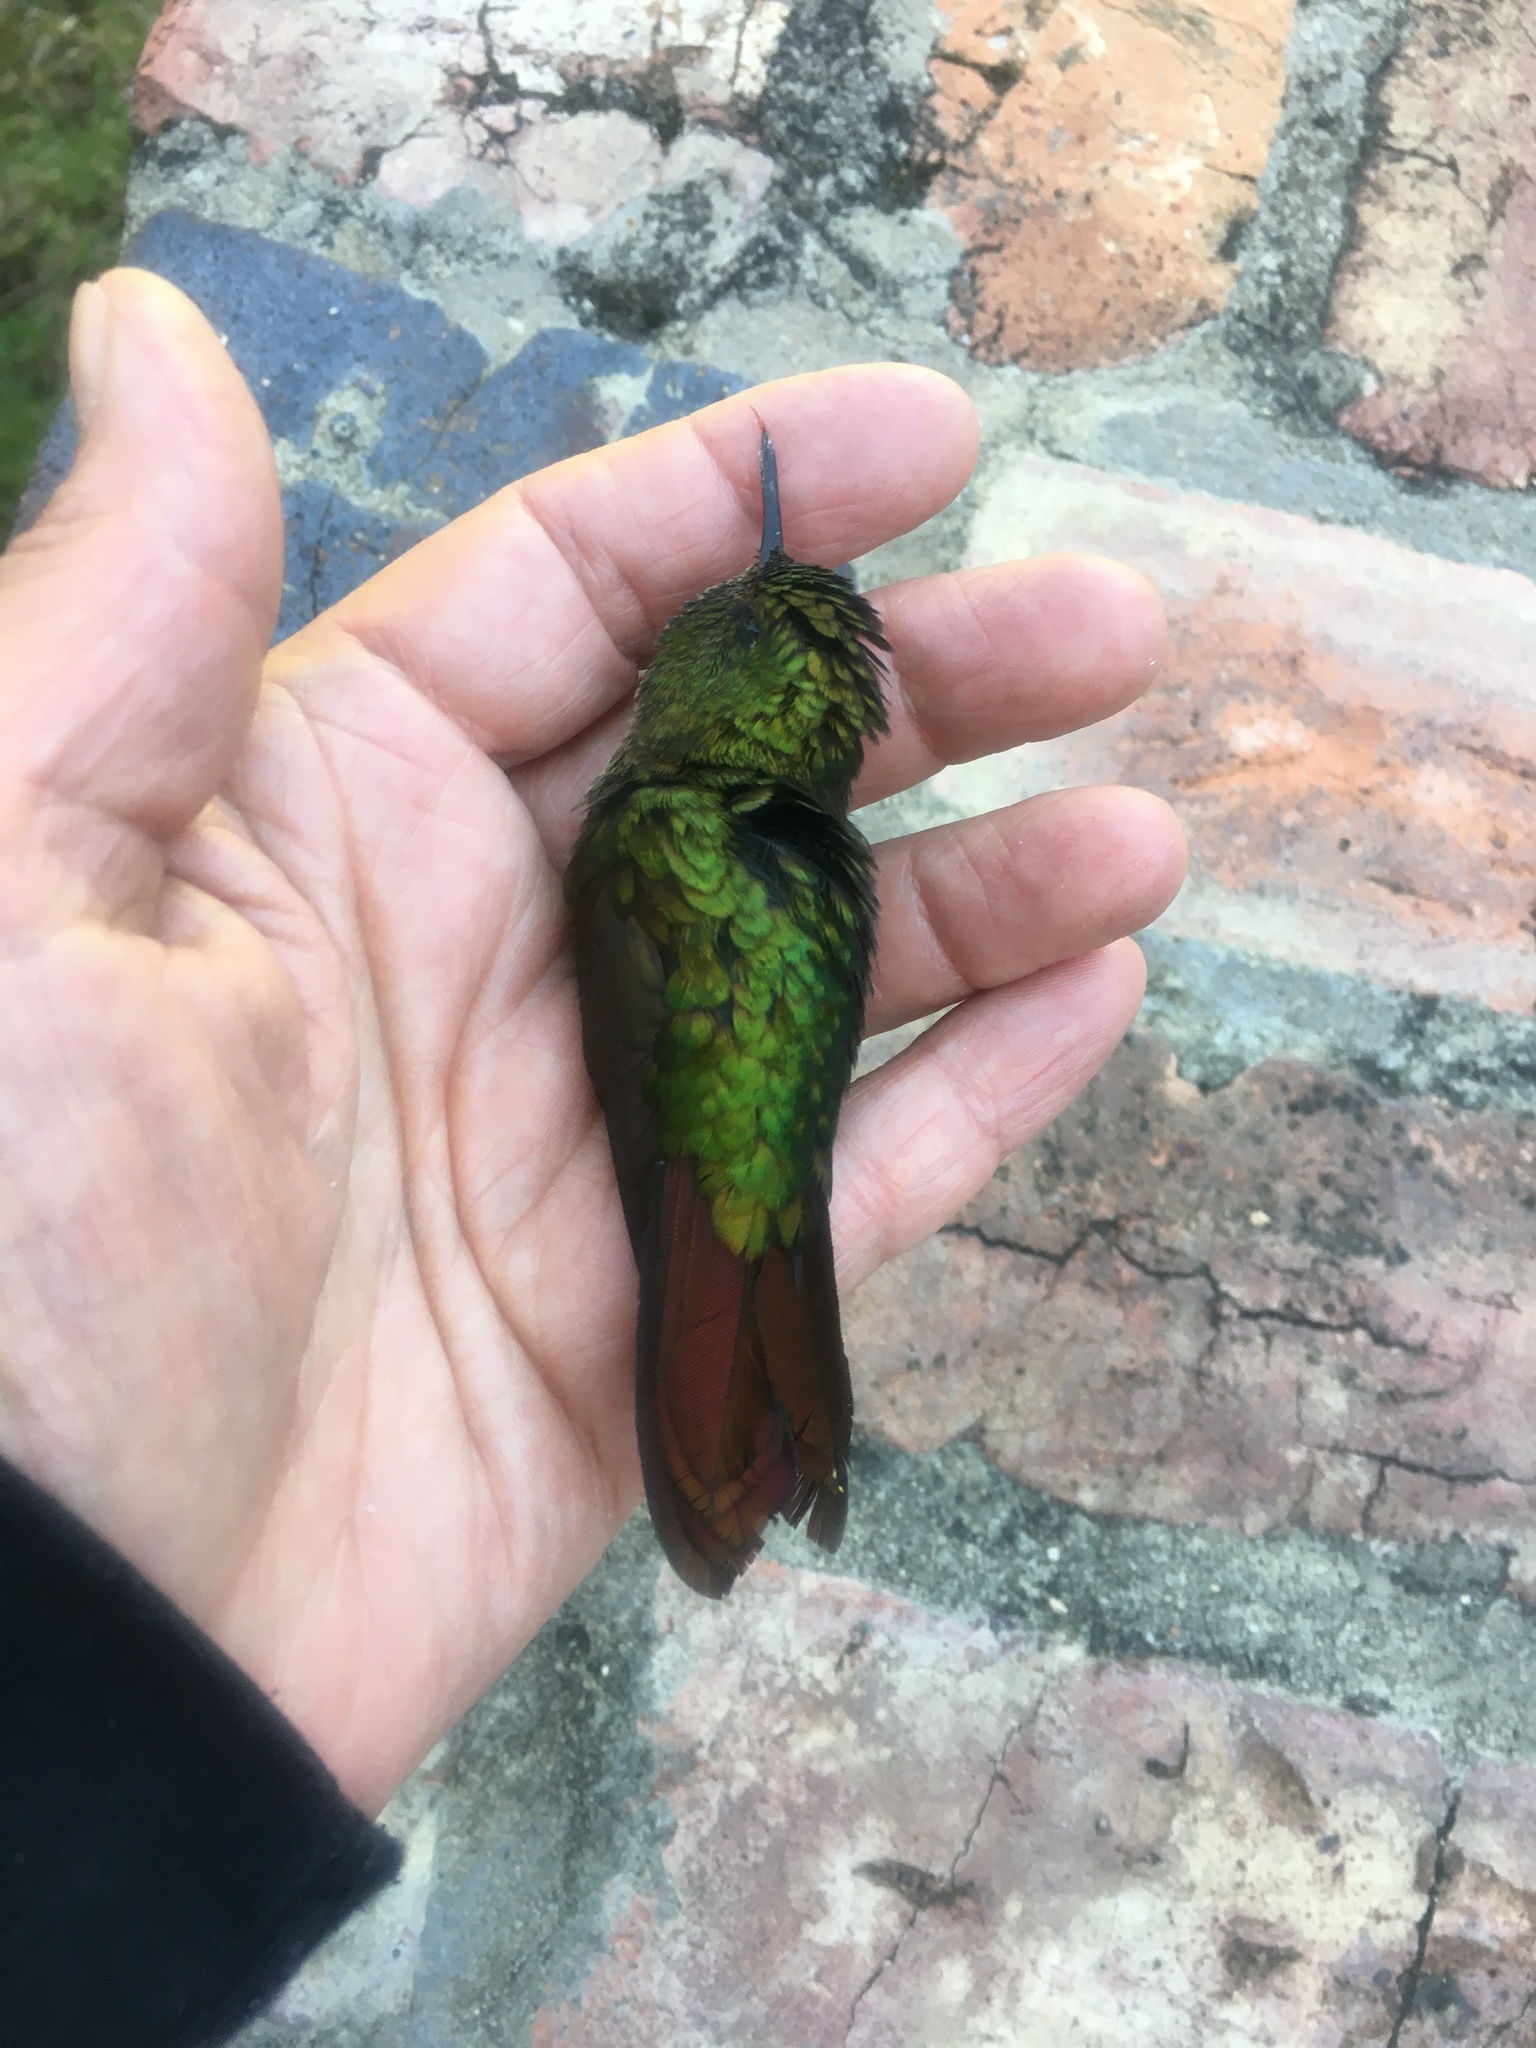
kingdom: Animalia
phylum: Chordata
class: Aves
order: Apodiformes
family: Trochilidae
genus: Metallura
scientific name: Metallura tyrianthina
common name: Tyrian metaltail
